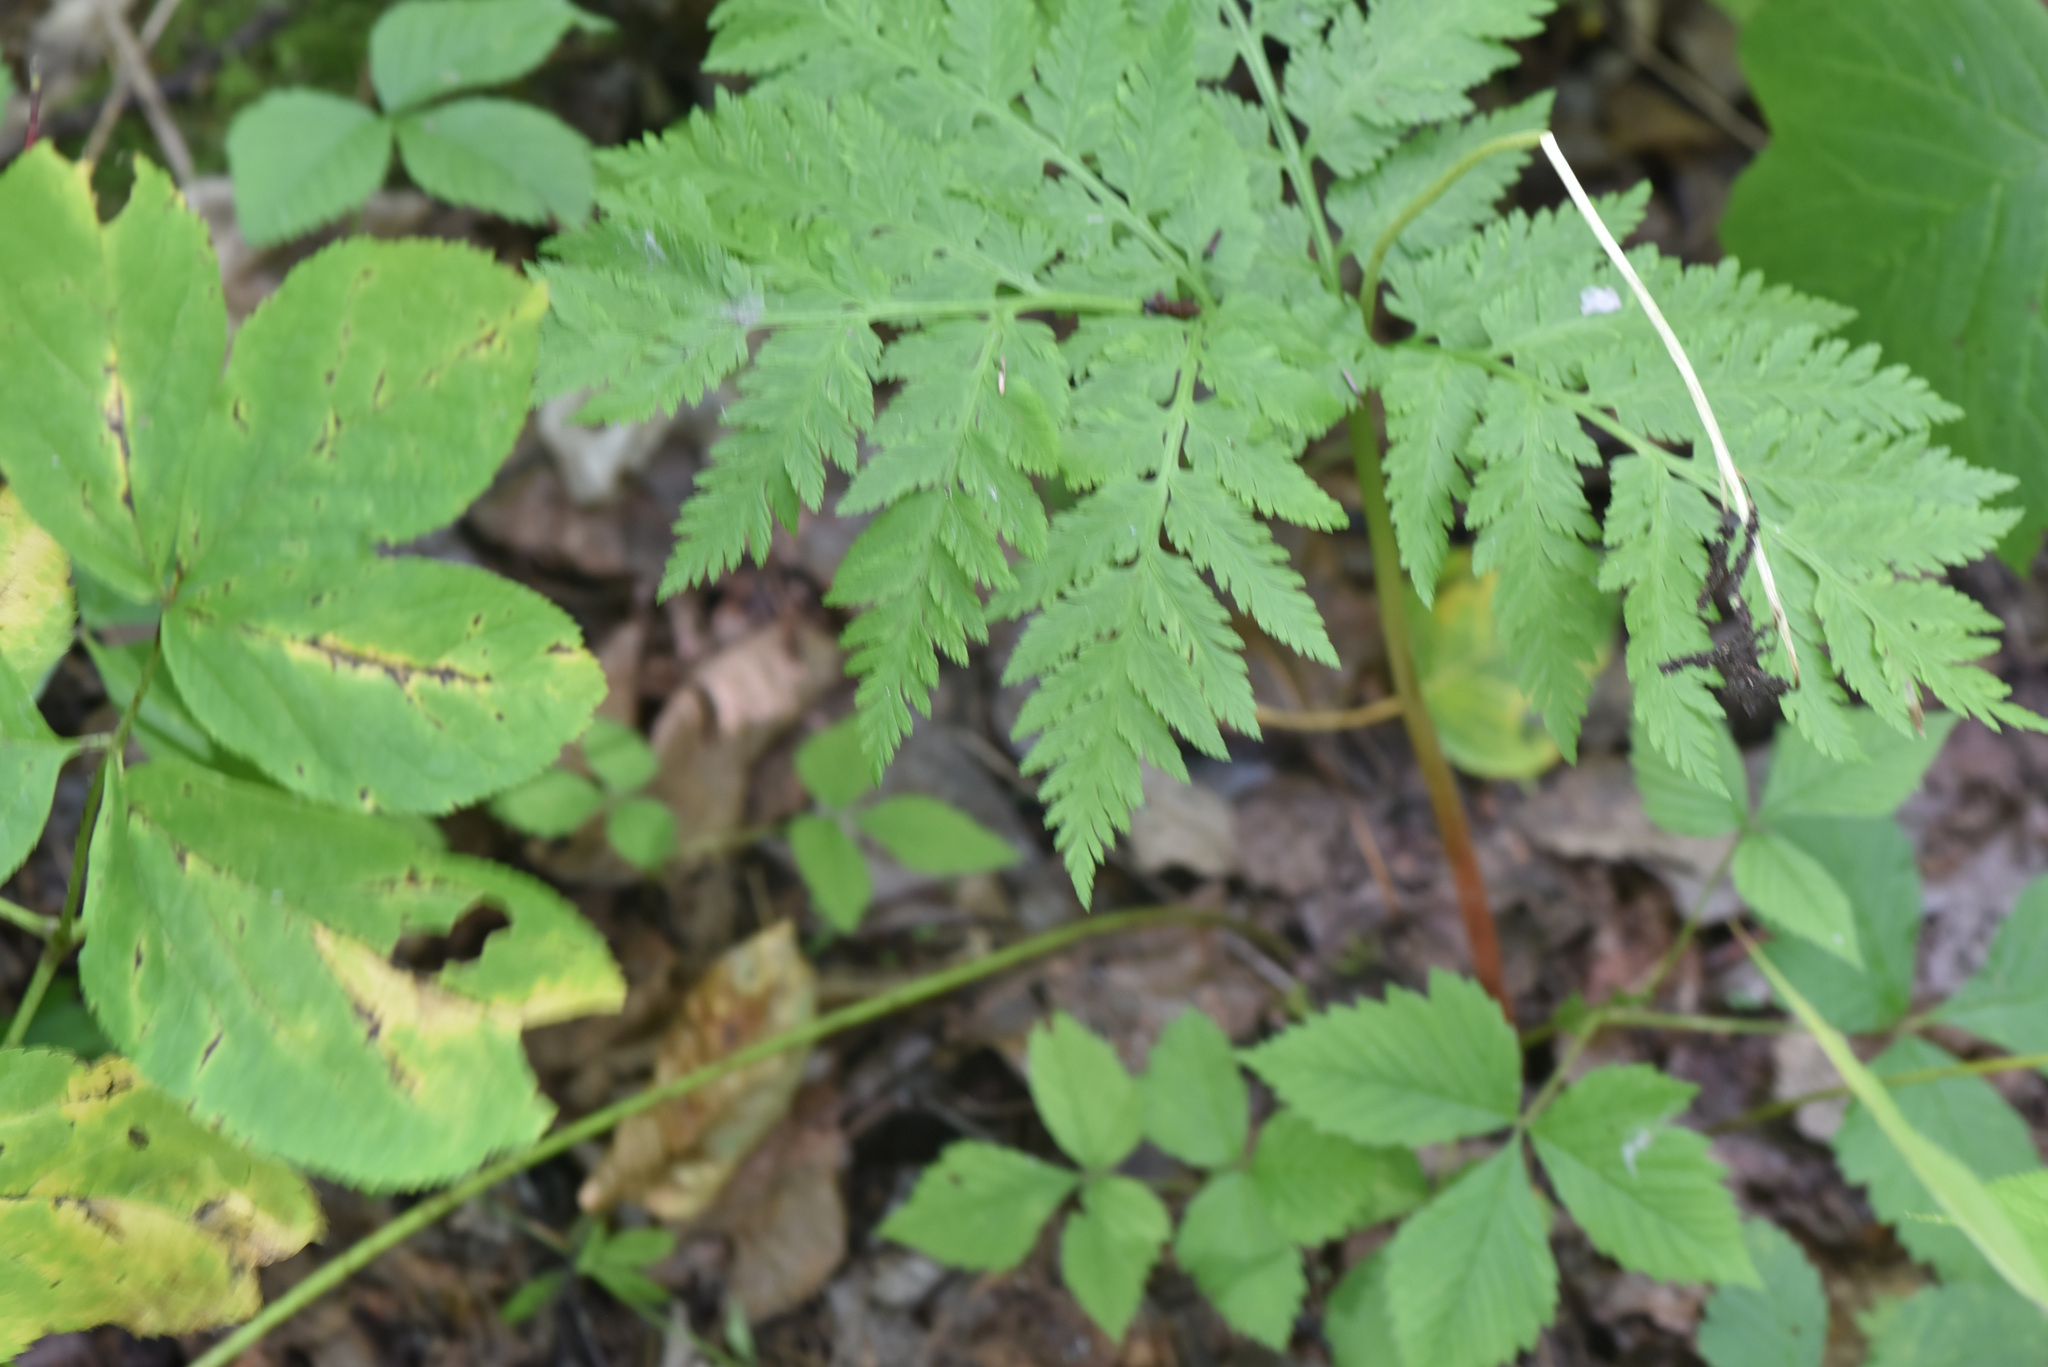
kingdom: Plantae
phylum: Tracheophyta
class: Polypodiopsida
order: Ophioglossales
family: Ophioglossaceae
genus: Botrypus
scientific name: Botrypus virginianus
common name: Common grapefern
